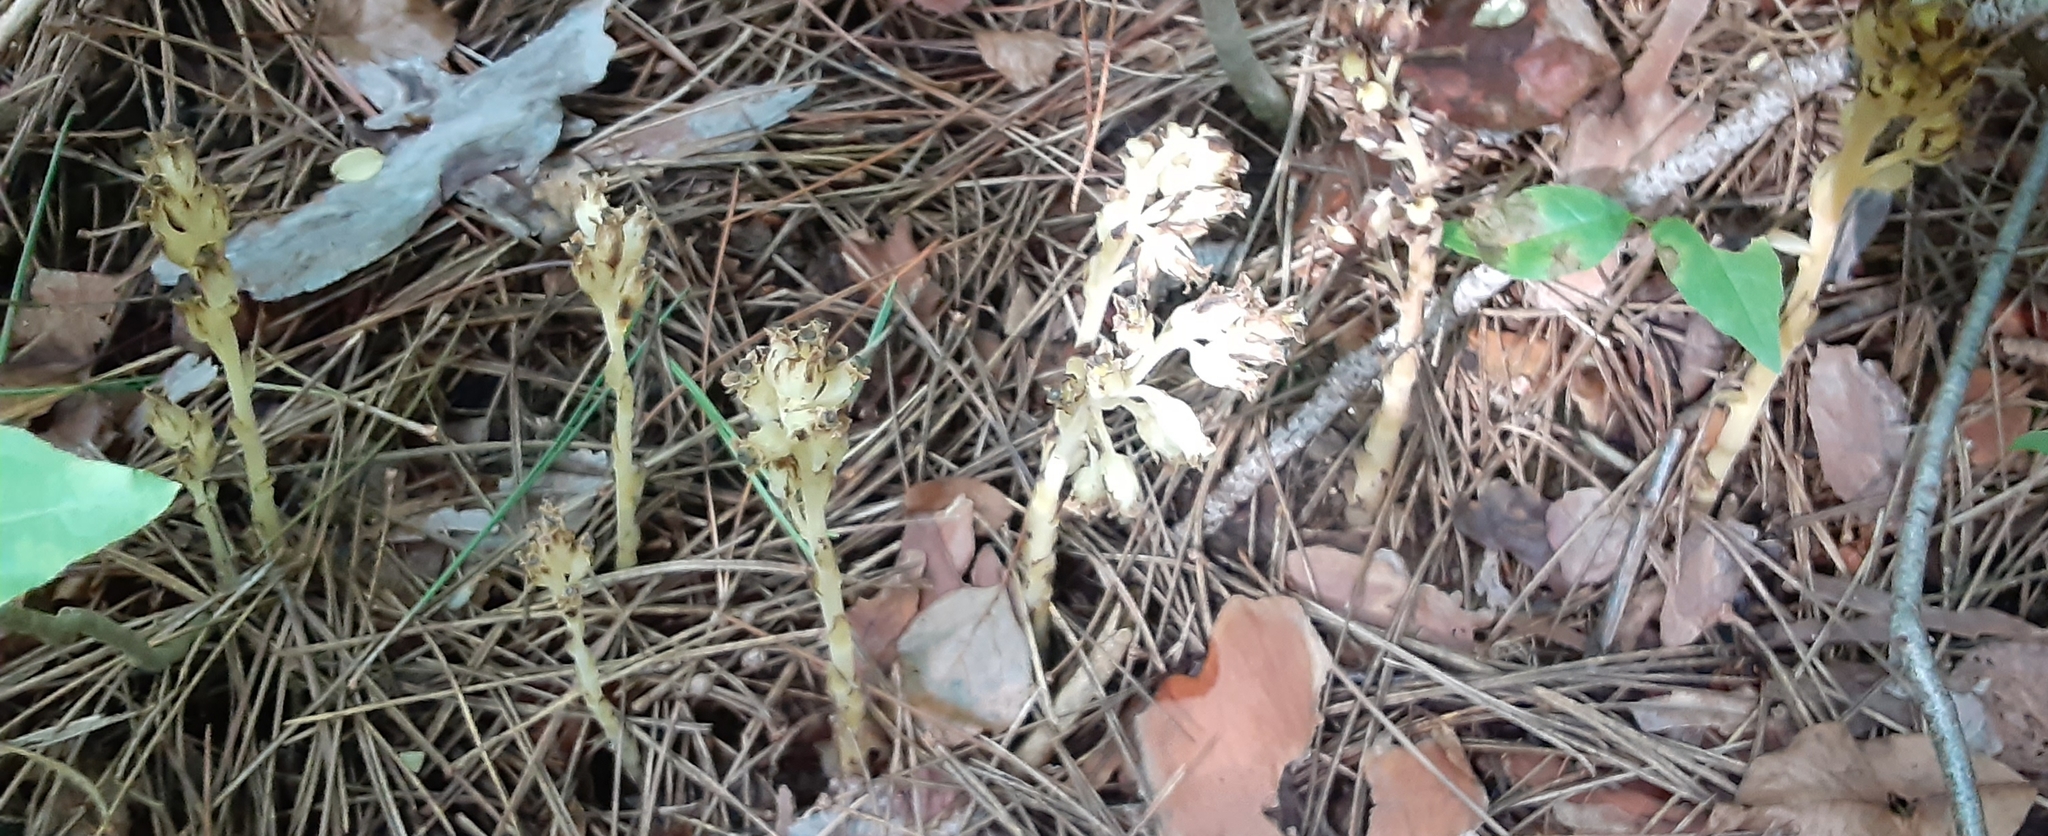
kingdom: Plantae
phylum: Tracheophyta
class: Magnoliopsida
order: Ericales
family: Ericaceae
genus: Hypopitys
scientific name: Hypopitys monotropa
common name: Yellow bird's-nest
